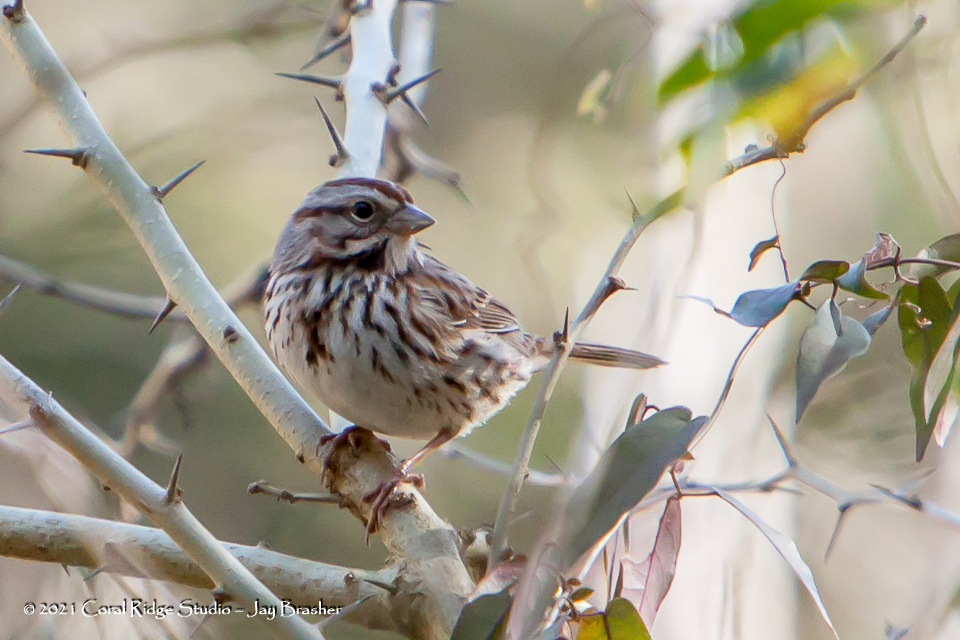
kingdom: Animalia
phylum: Chordata
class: Aves
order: Passeriformes
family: Passerellidae
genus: Melospiza
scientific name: Melospiza melodia
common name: Song sparrow
